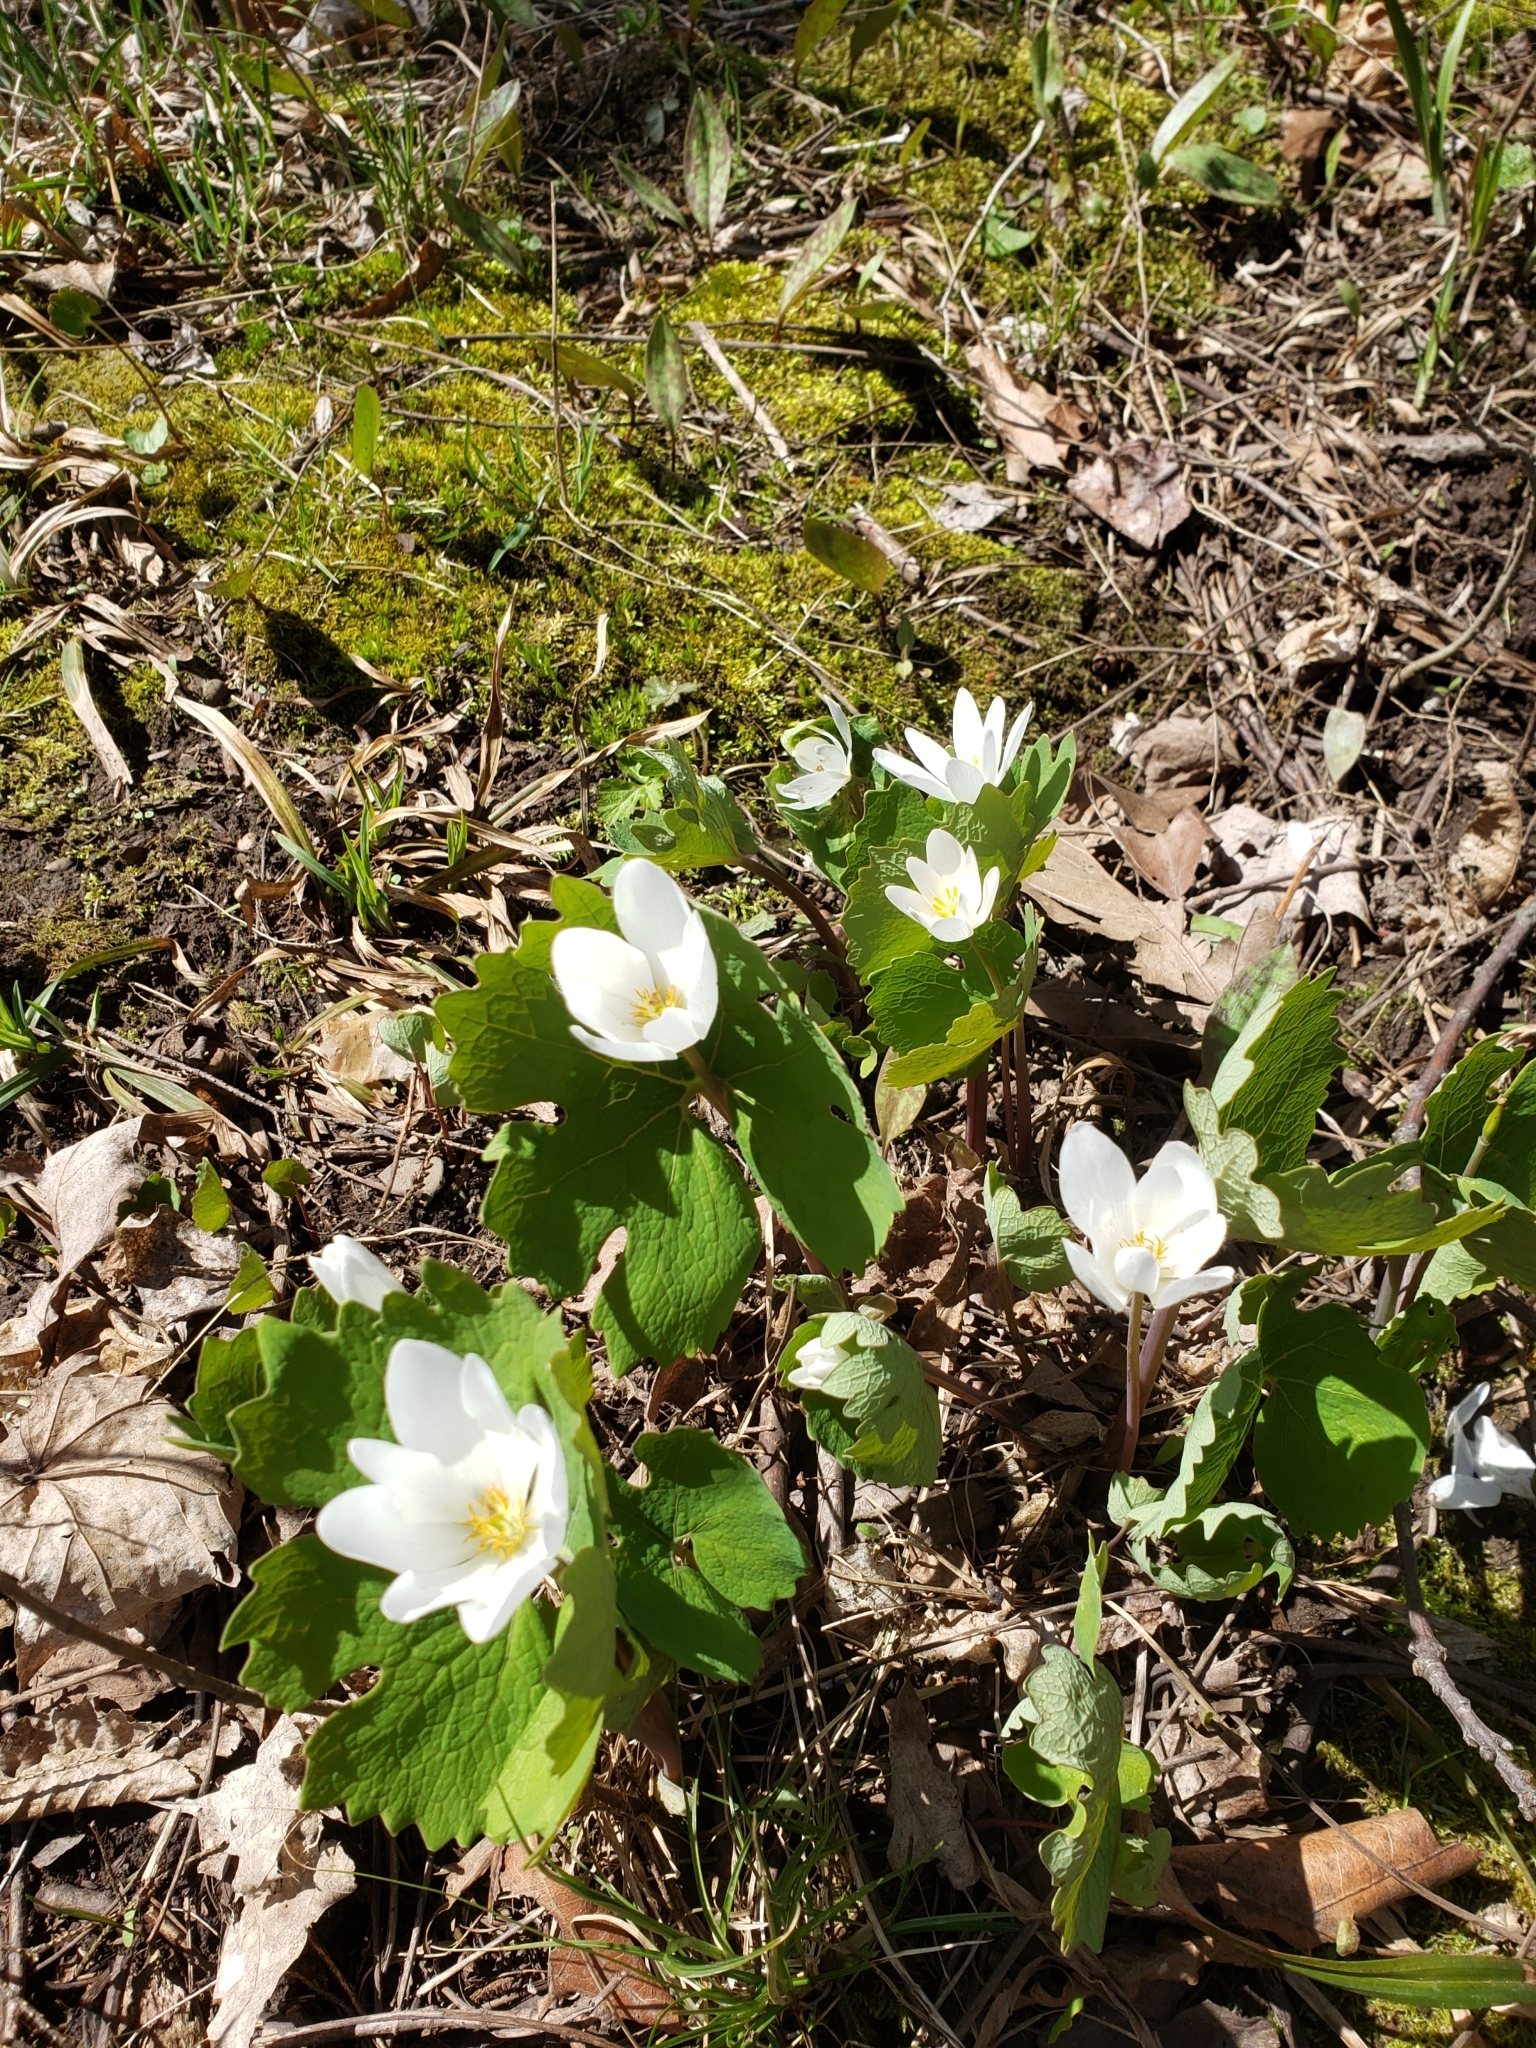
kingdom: Plantae
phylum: Tracheophyta
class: Magnoliopsida
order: Ranunculales
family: Papaveraceae
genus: Sanguinaria
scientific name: Sanguinaria canadensis
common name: Bloodroot
